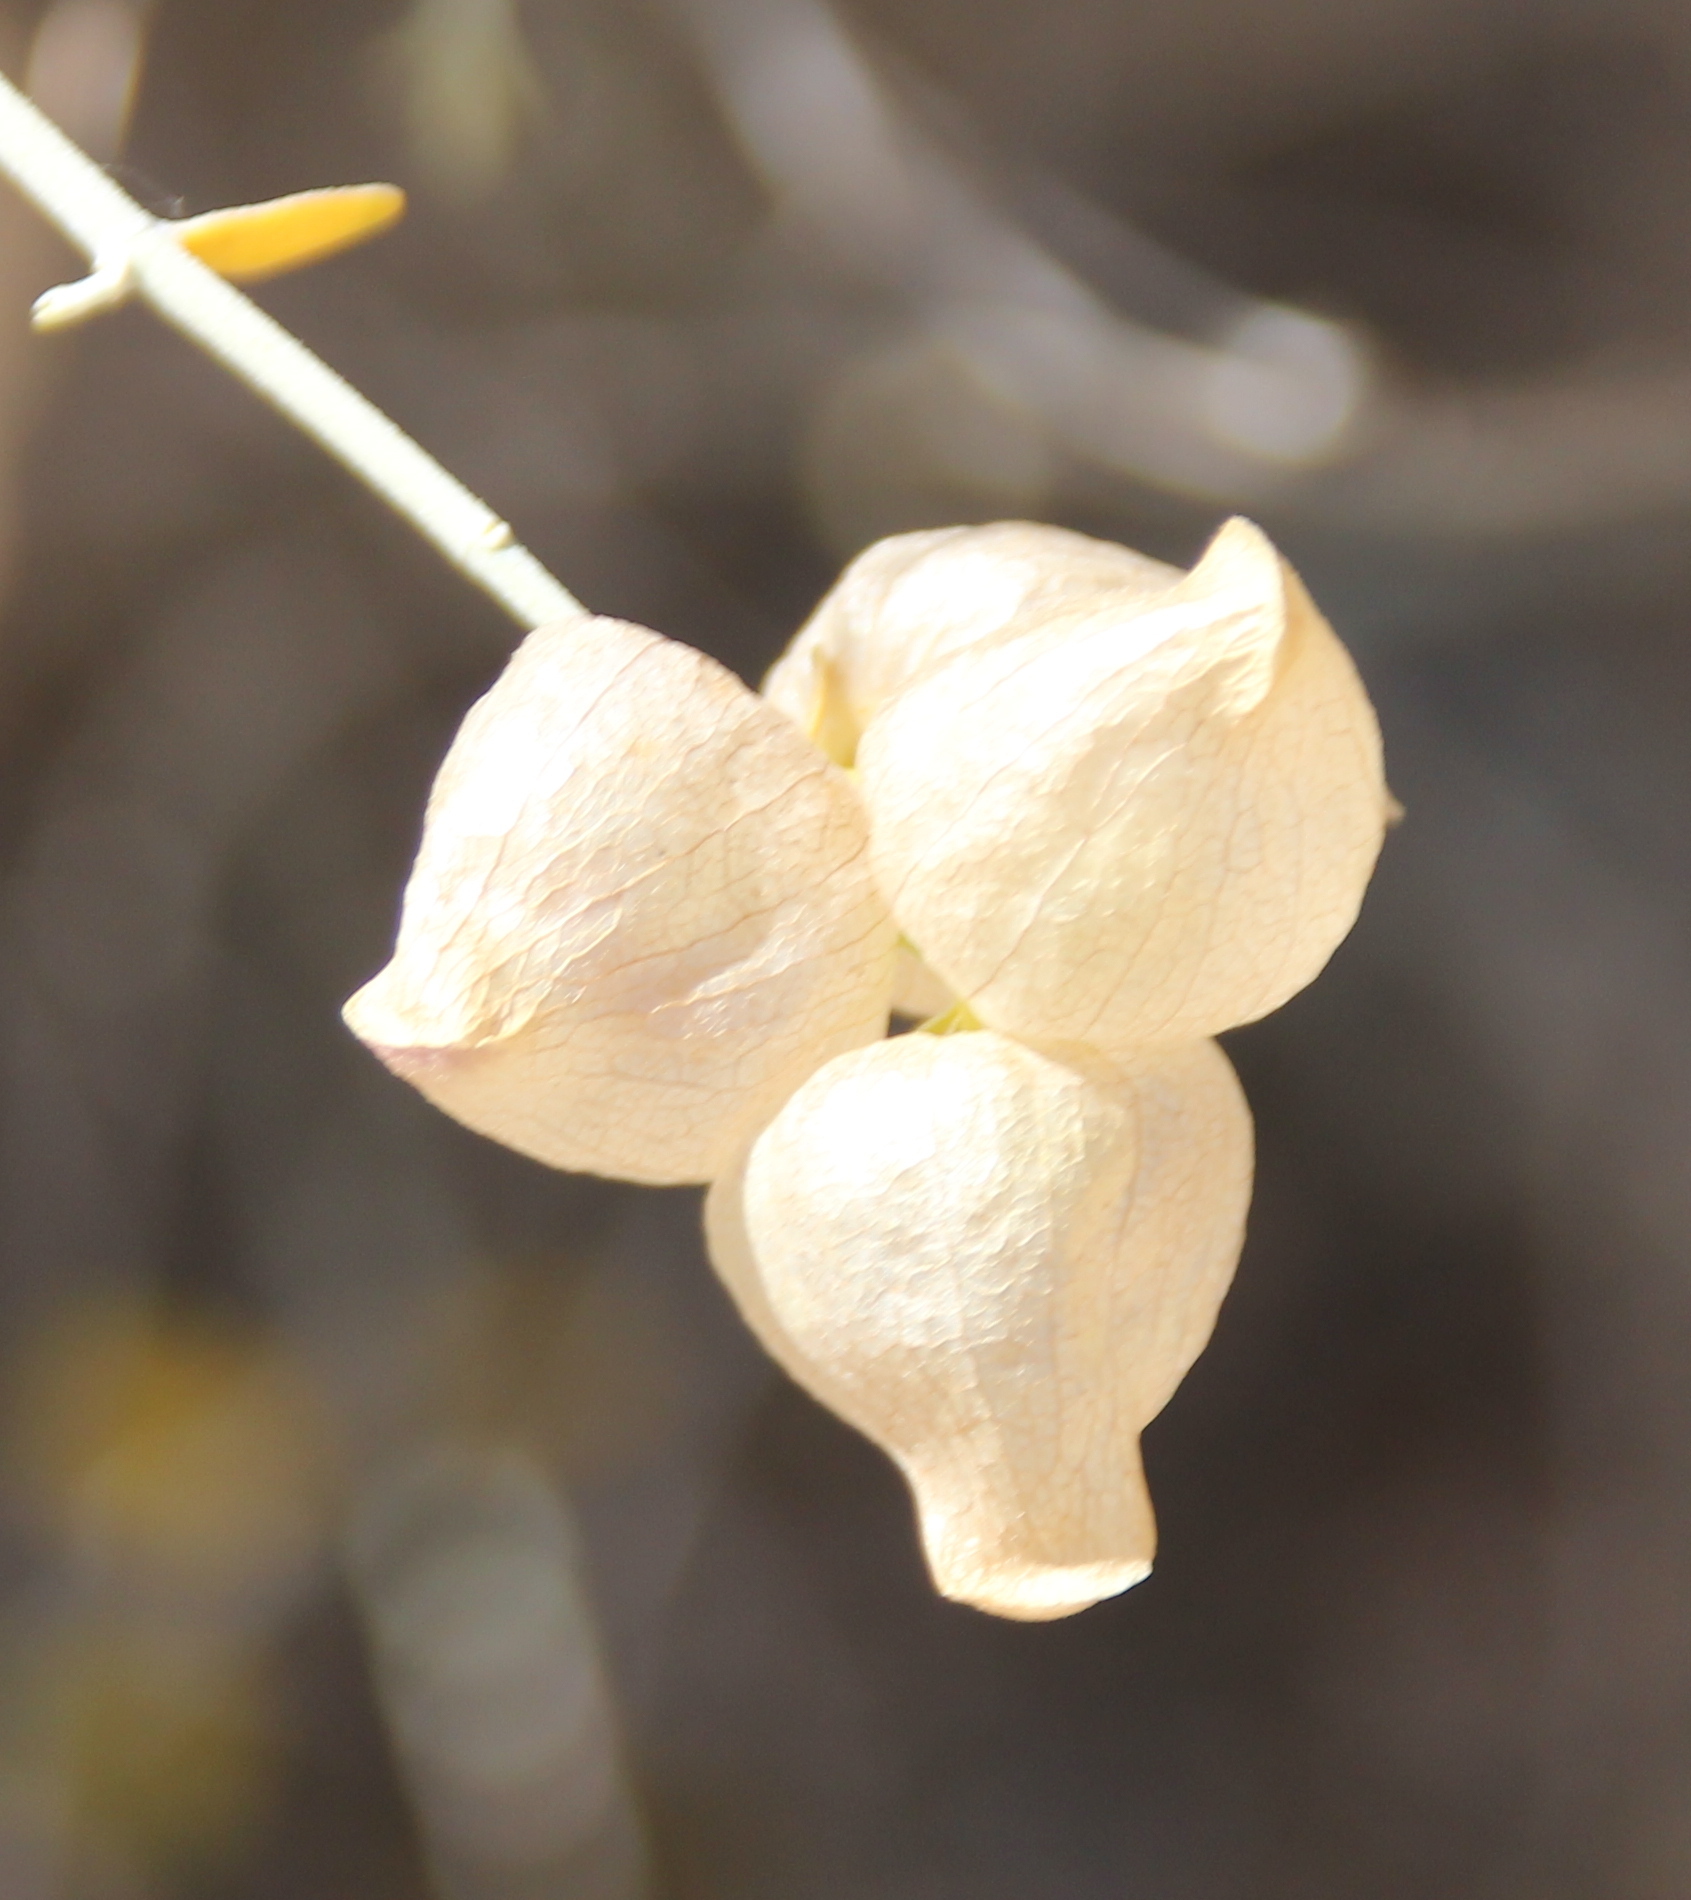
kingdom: Plantae
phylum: Tracheophyta
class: Magnoliopsida
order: Lamiales
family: Lamiaceae
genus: Scutellaria
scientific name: Scutellaria mexicana
